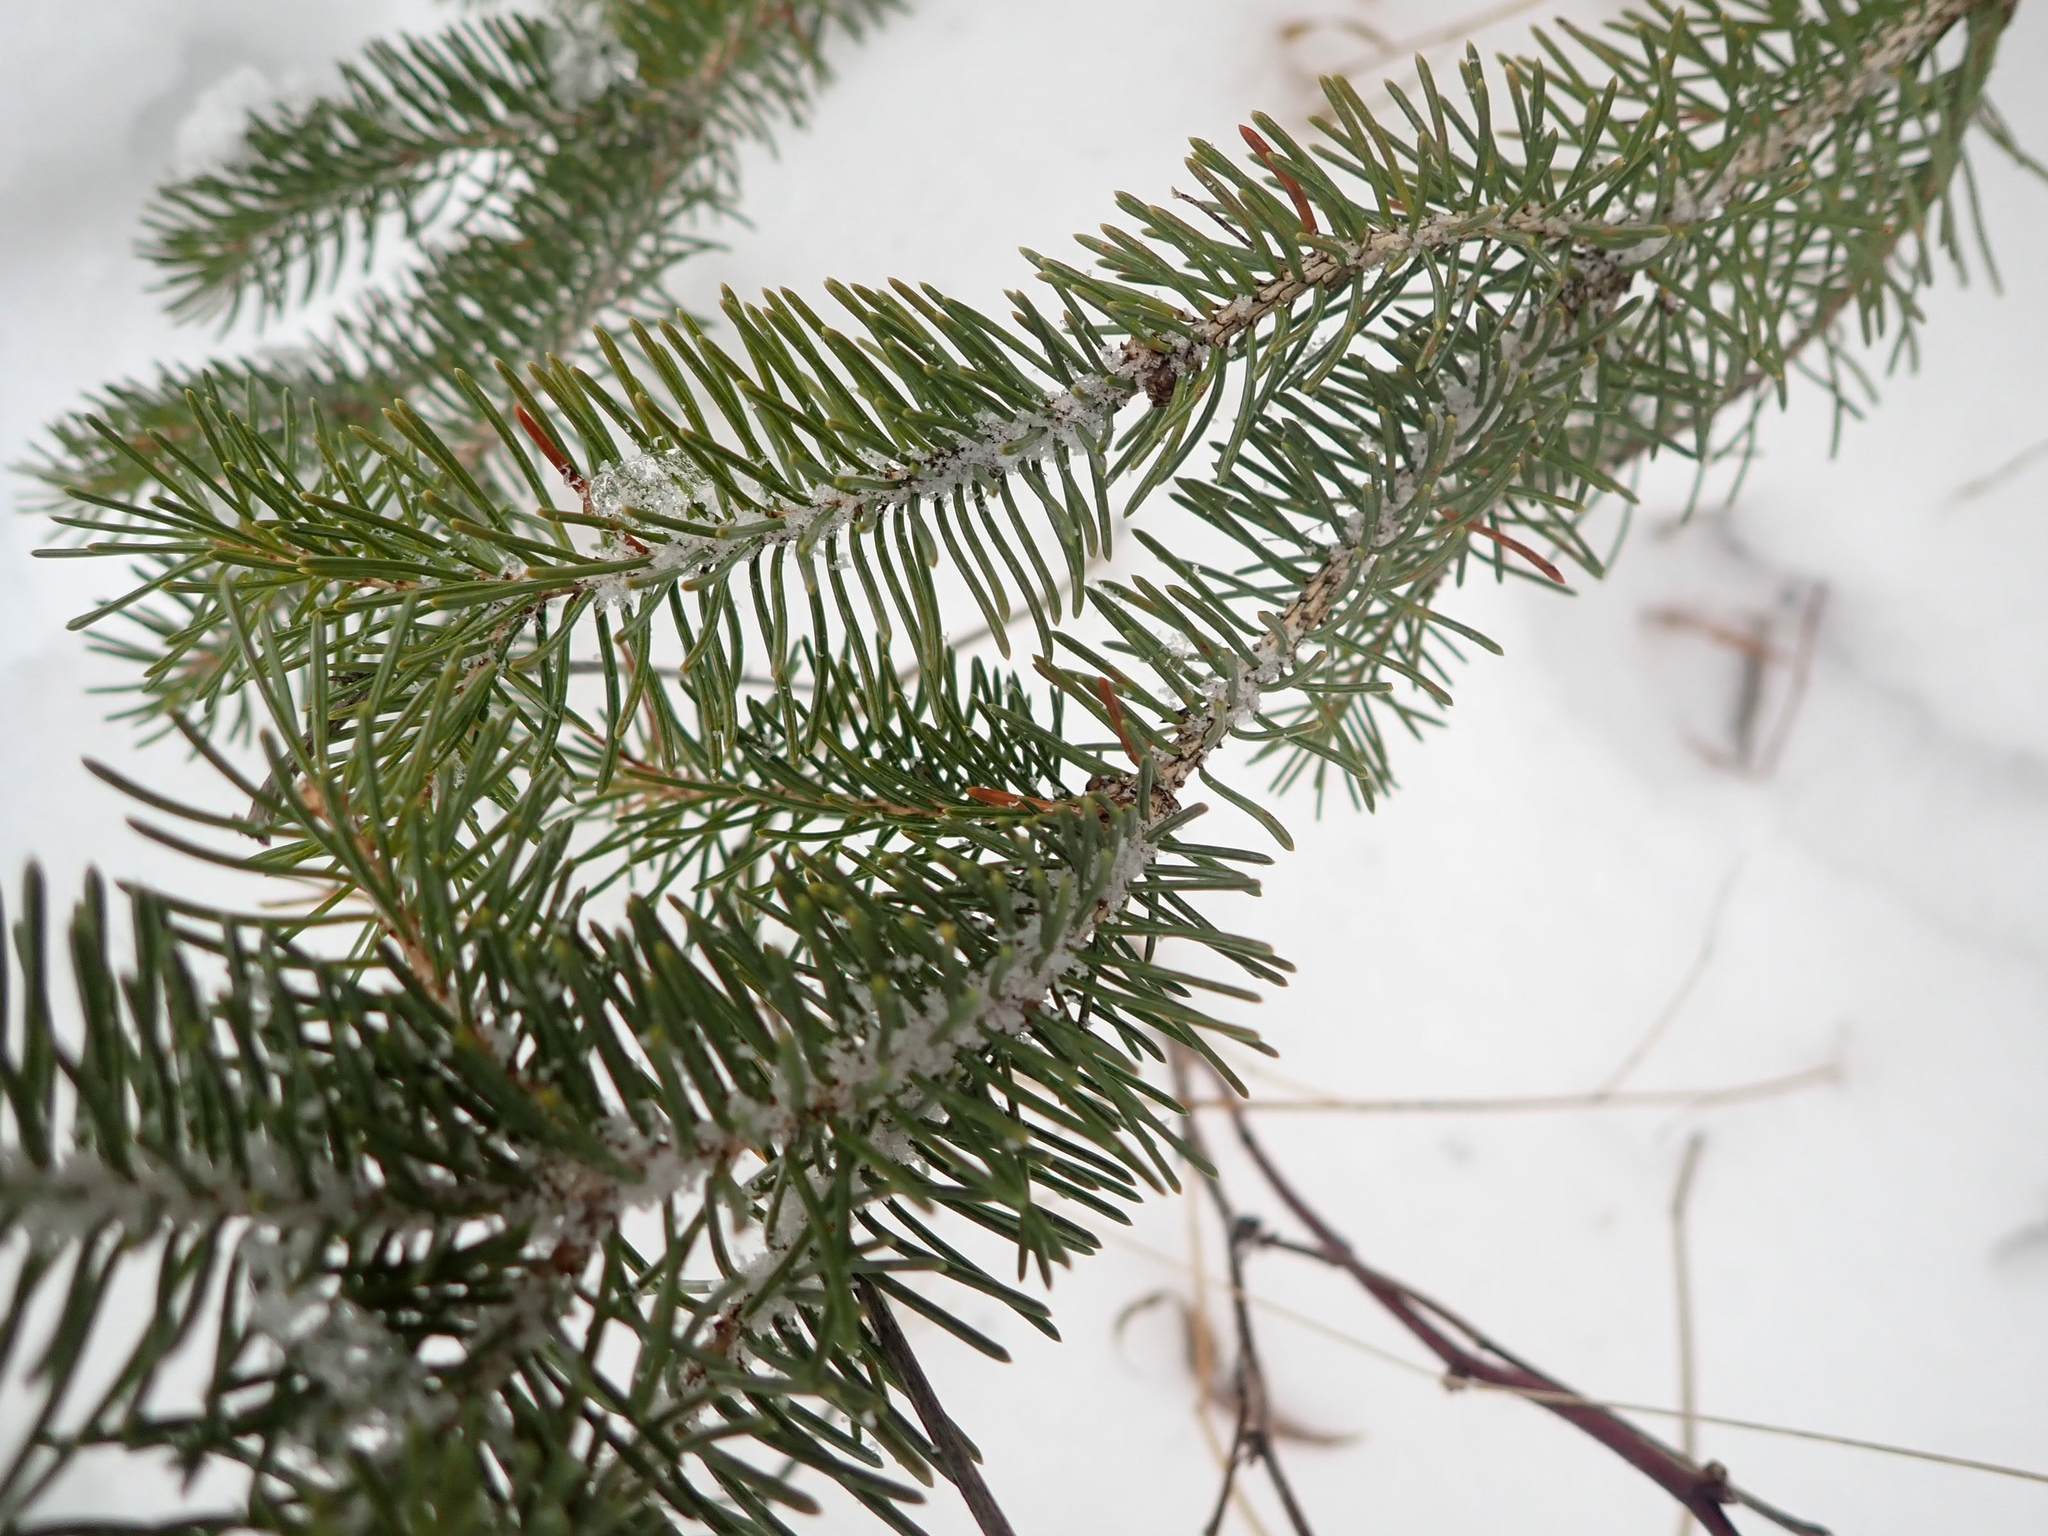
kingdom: Plantae
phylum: Tracheophyta
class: Pinopsida
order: Pinales
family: Pinaceae
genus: Picea
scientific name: Picea glauca
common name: White spruce
